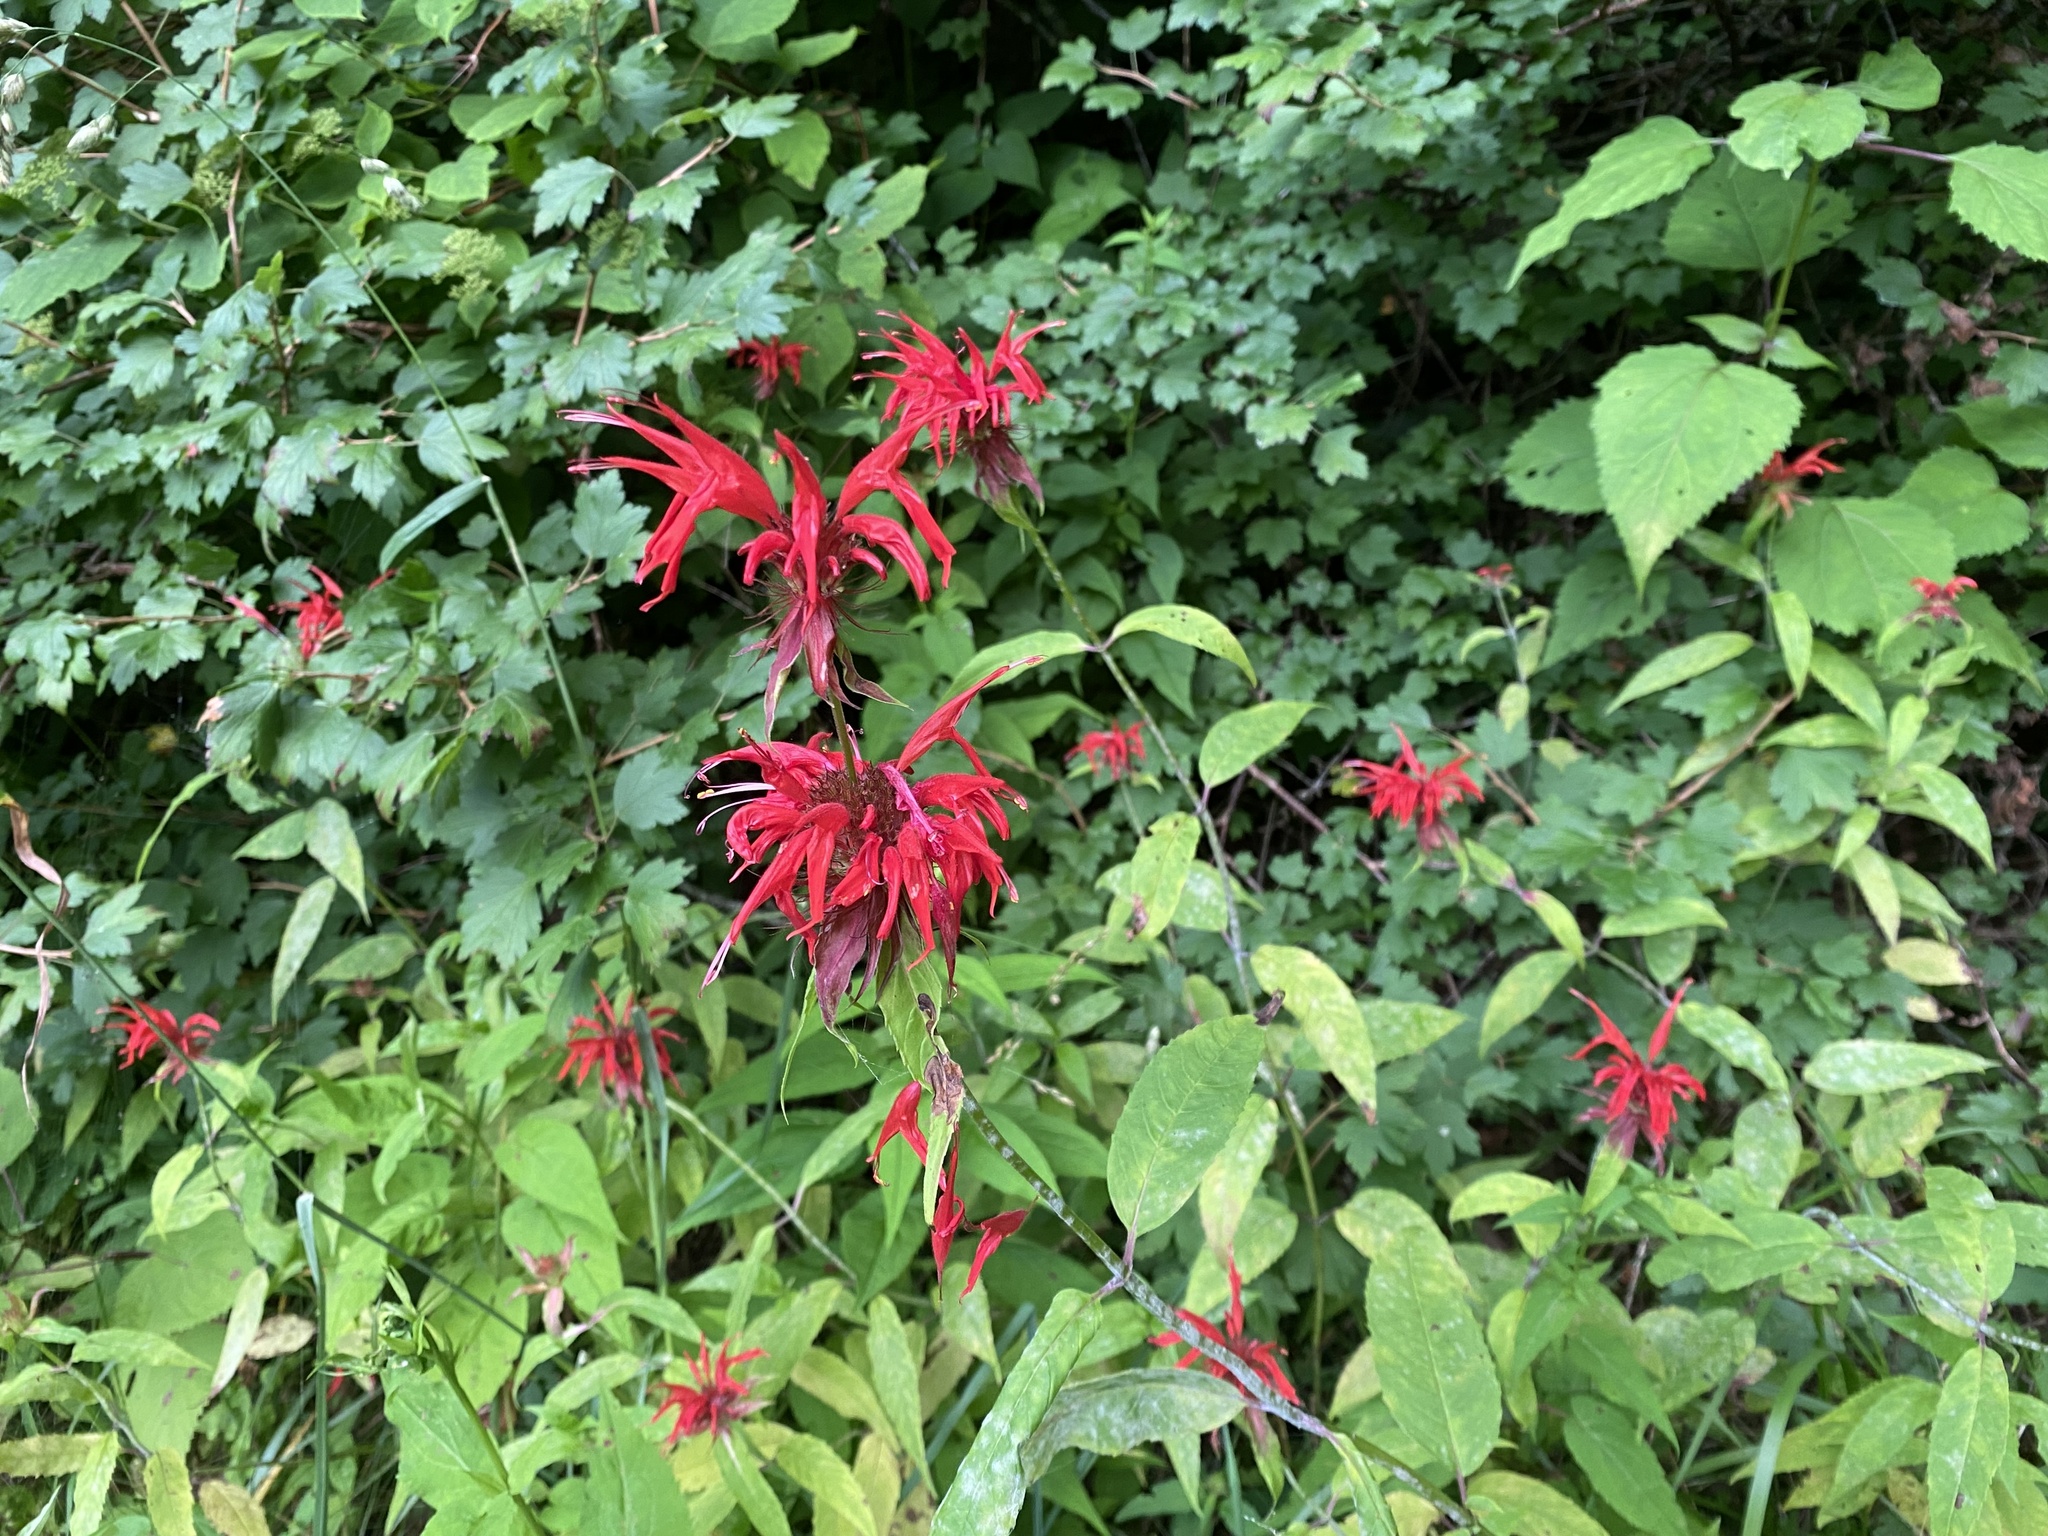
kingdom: Plantae
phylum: Tracheophyta
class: Magnoliopsida
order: Lamiales
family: Lamiaceae
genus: Monarda
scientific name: Monarda didyma
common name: Beebalm
